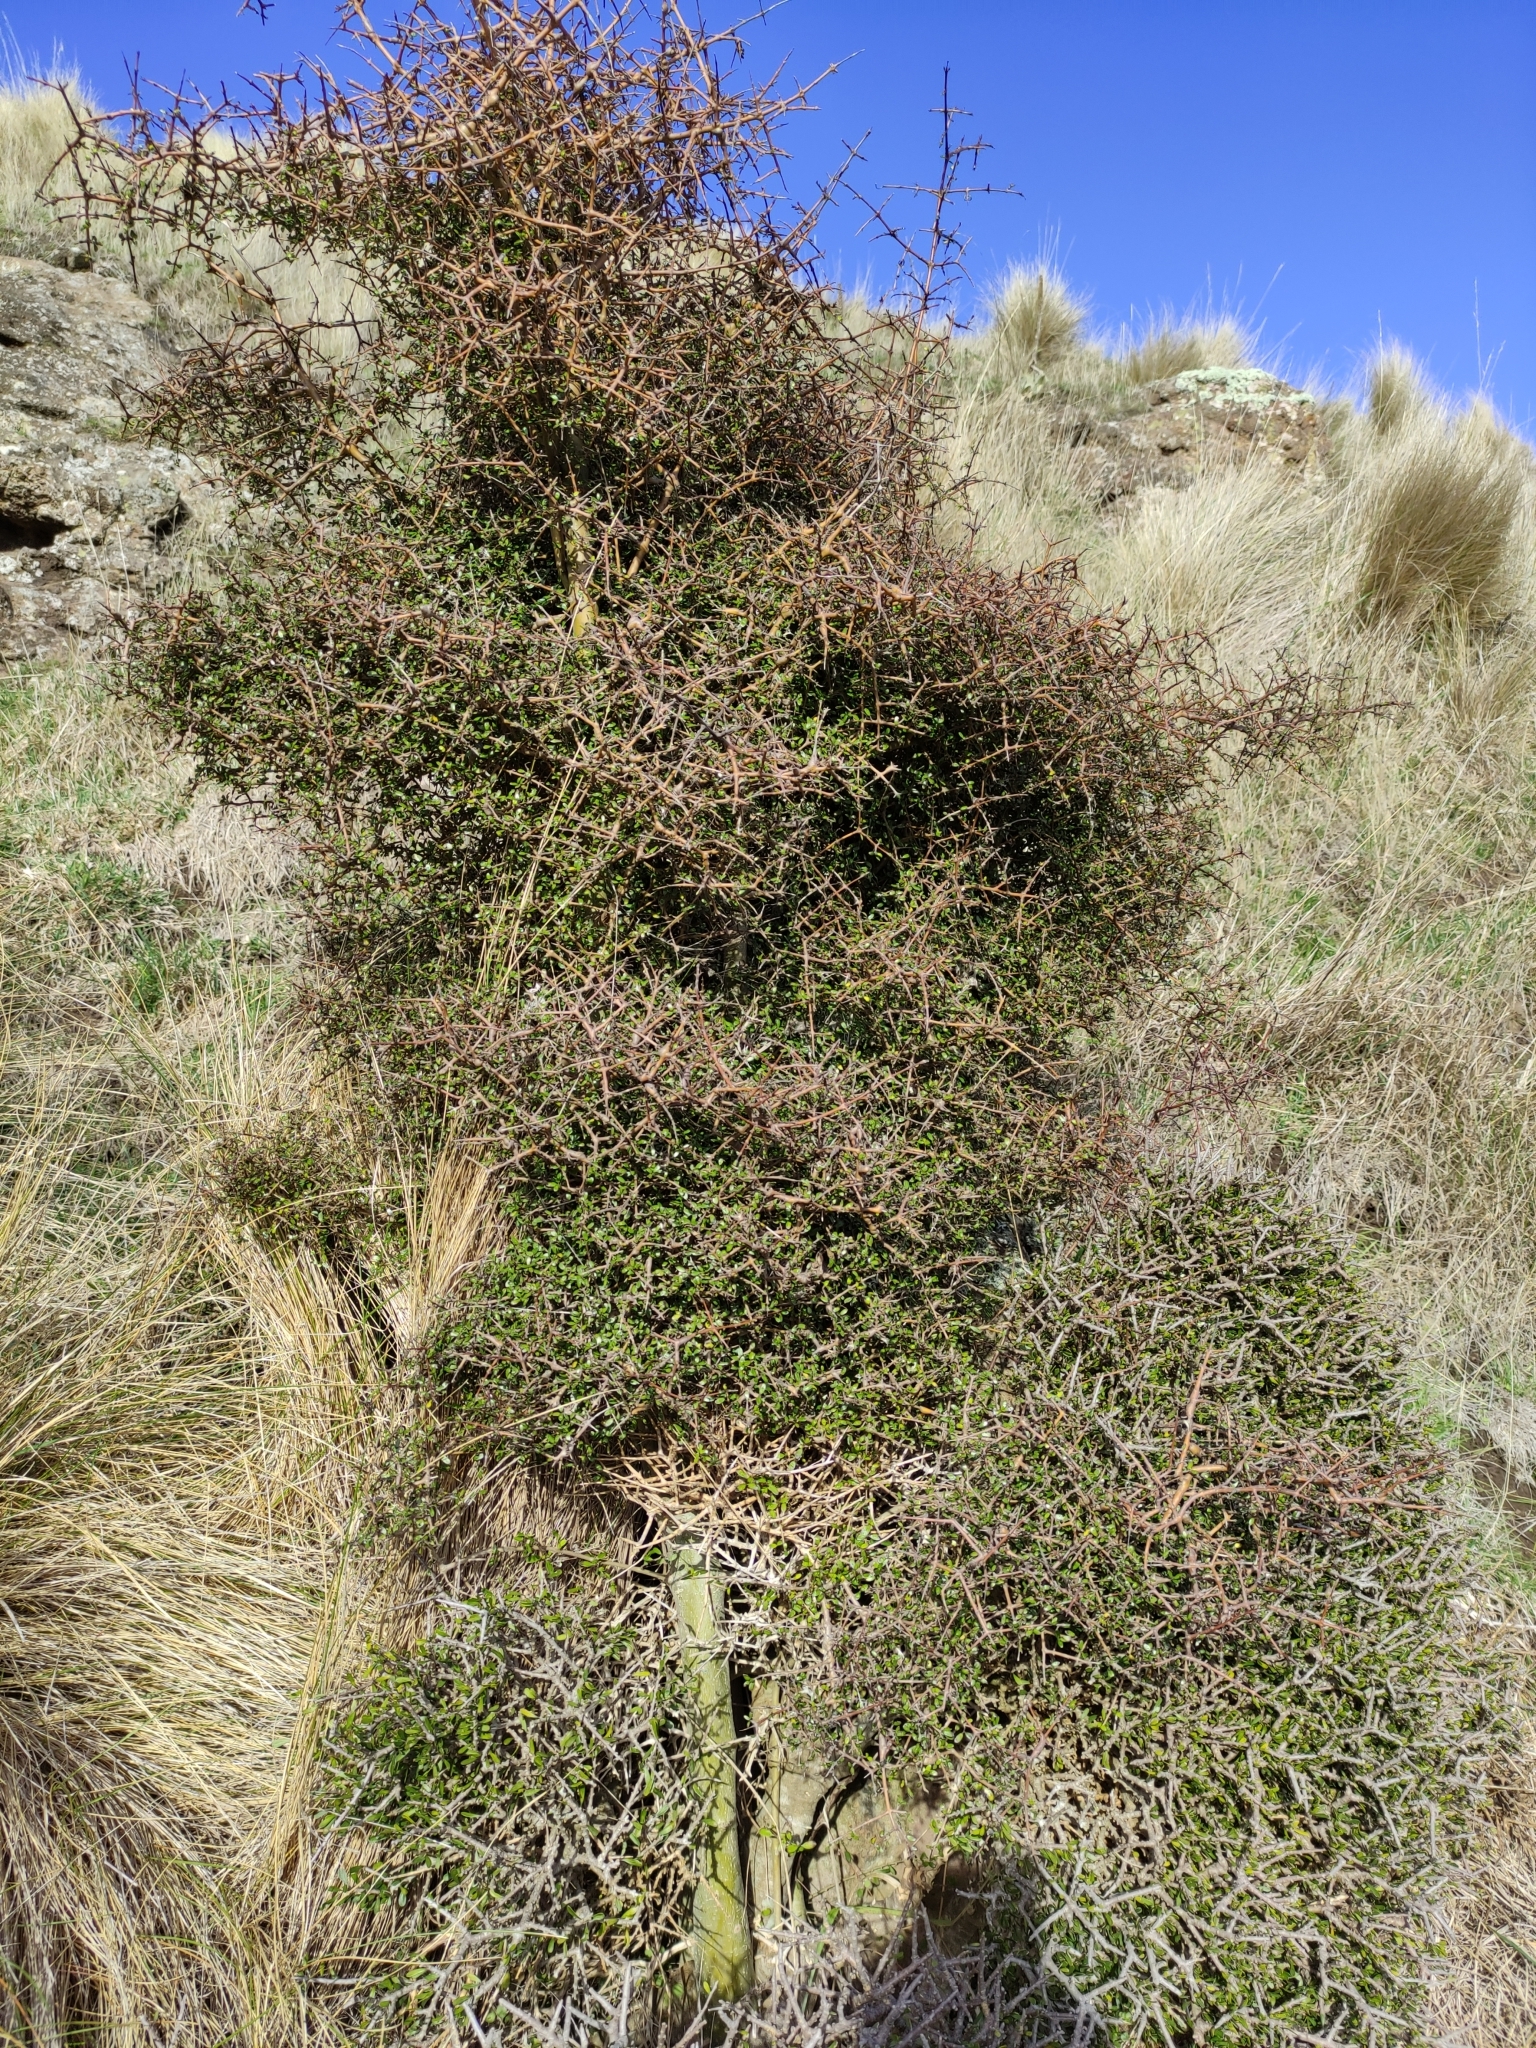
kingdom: Plantae
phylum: Tracheophyta
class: Magnoliopsida
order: Gentianales
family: Rubiaceae
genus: Coprosma
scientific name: Coprosma propinqua
